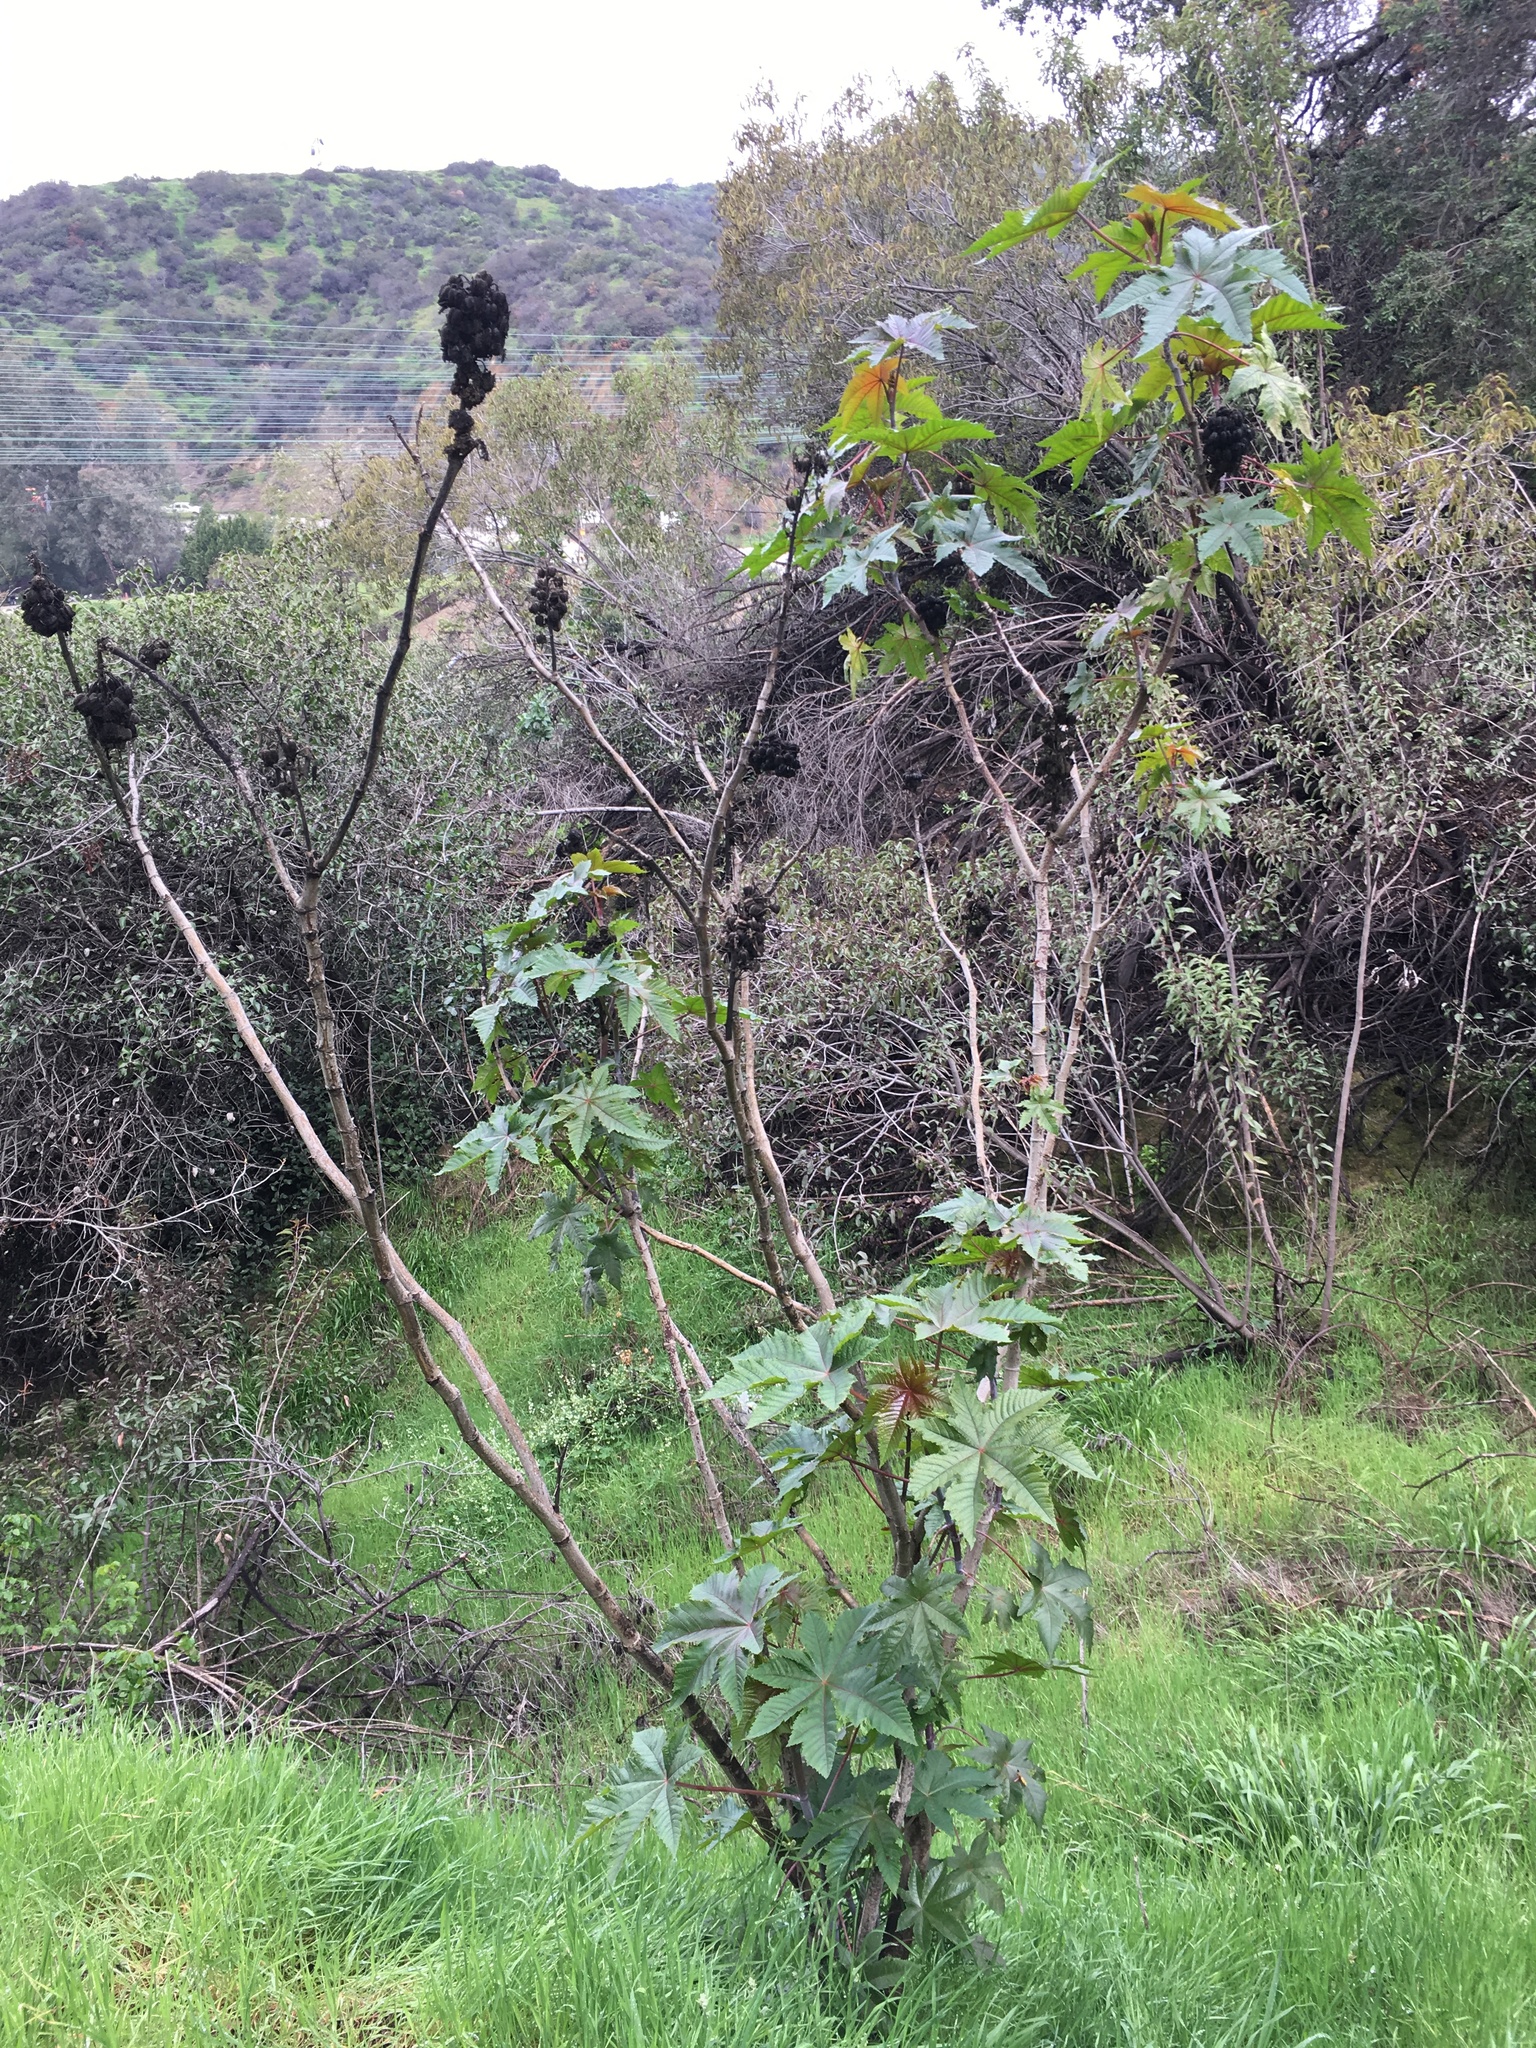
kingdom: Plantae
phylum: Tracheophyta
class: Magnoliopsida
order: Malpighiales
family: Euphorbiaceae
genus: Ricinus
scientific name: Ricinus communis
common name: Castor-oil-plant
